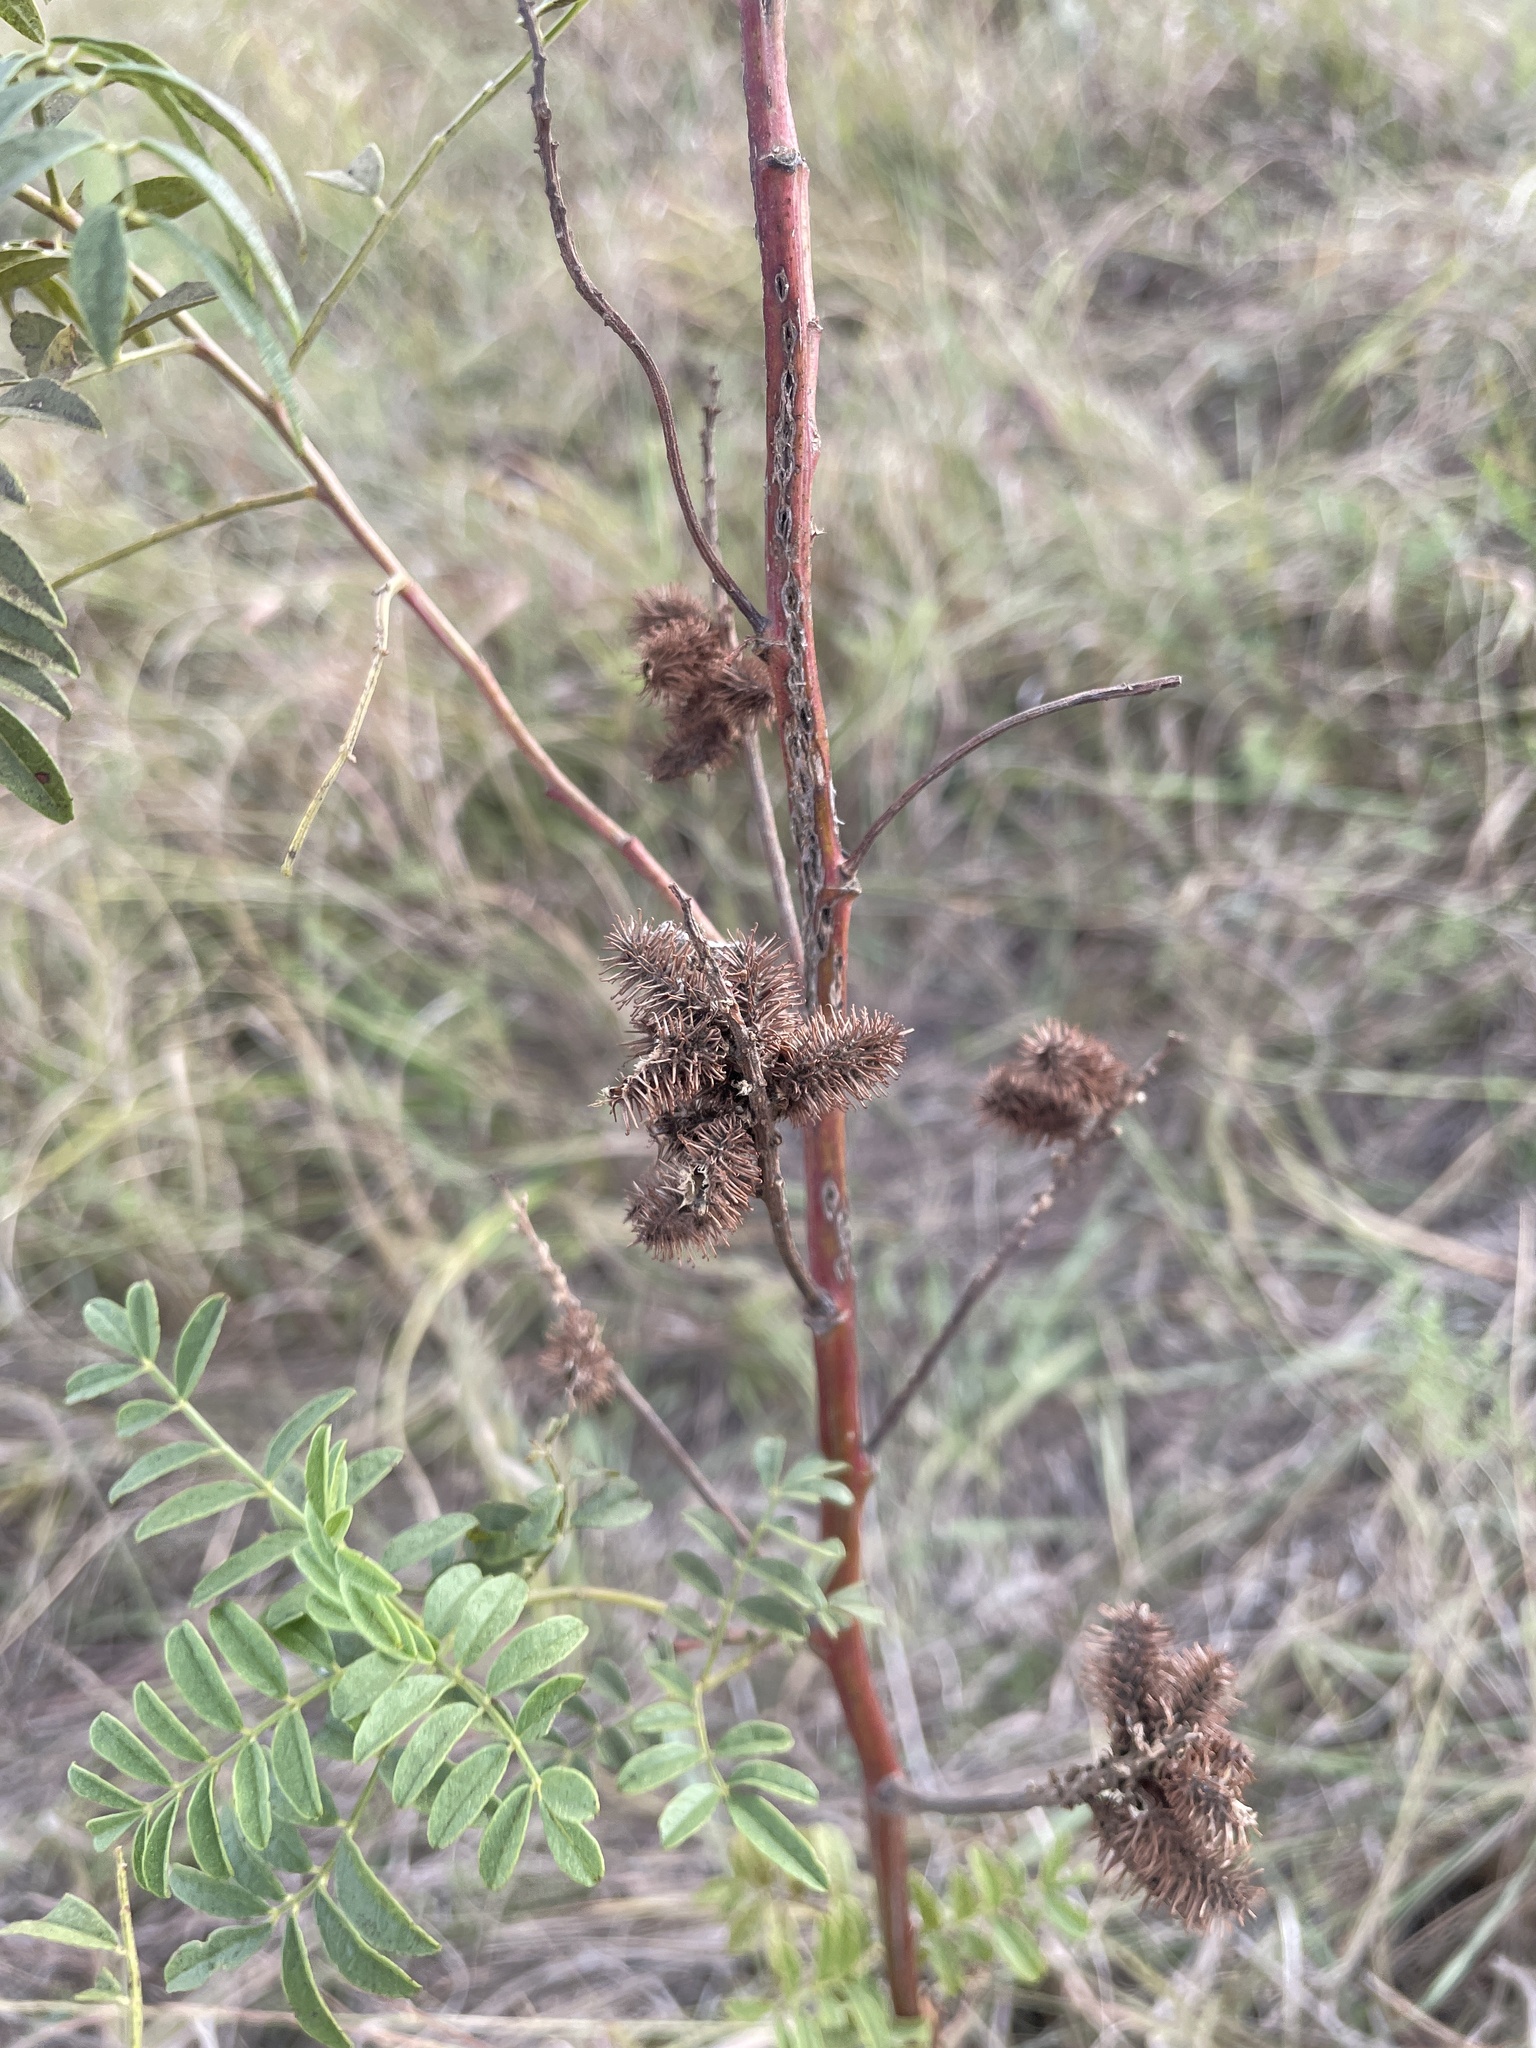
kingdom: Plantae
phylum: Tracheophyta
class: Magnoliopsida
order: Fabales
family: Fabaceae
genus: Glycyrrhiza
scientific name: Glycyrrhiza lepidota
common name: American liquorice
